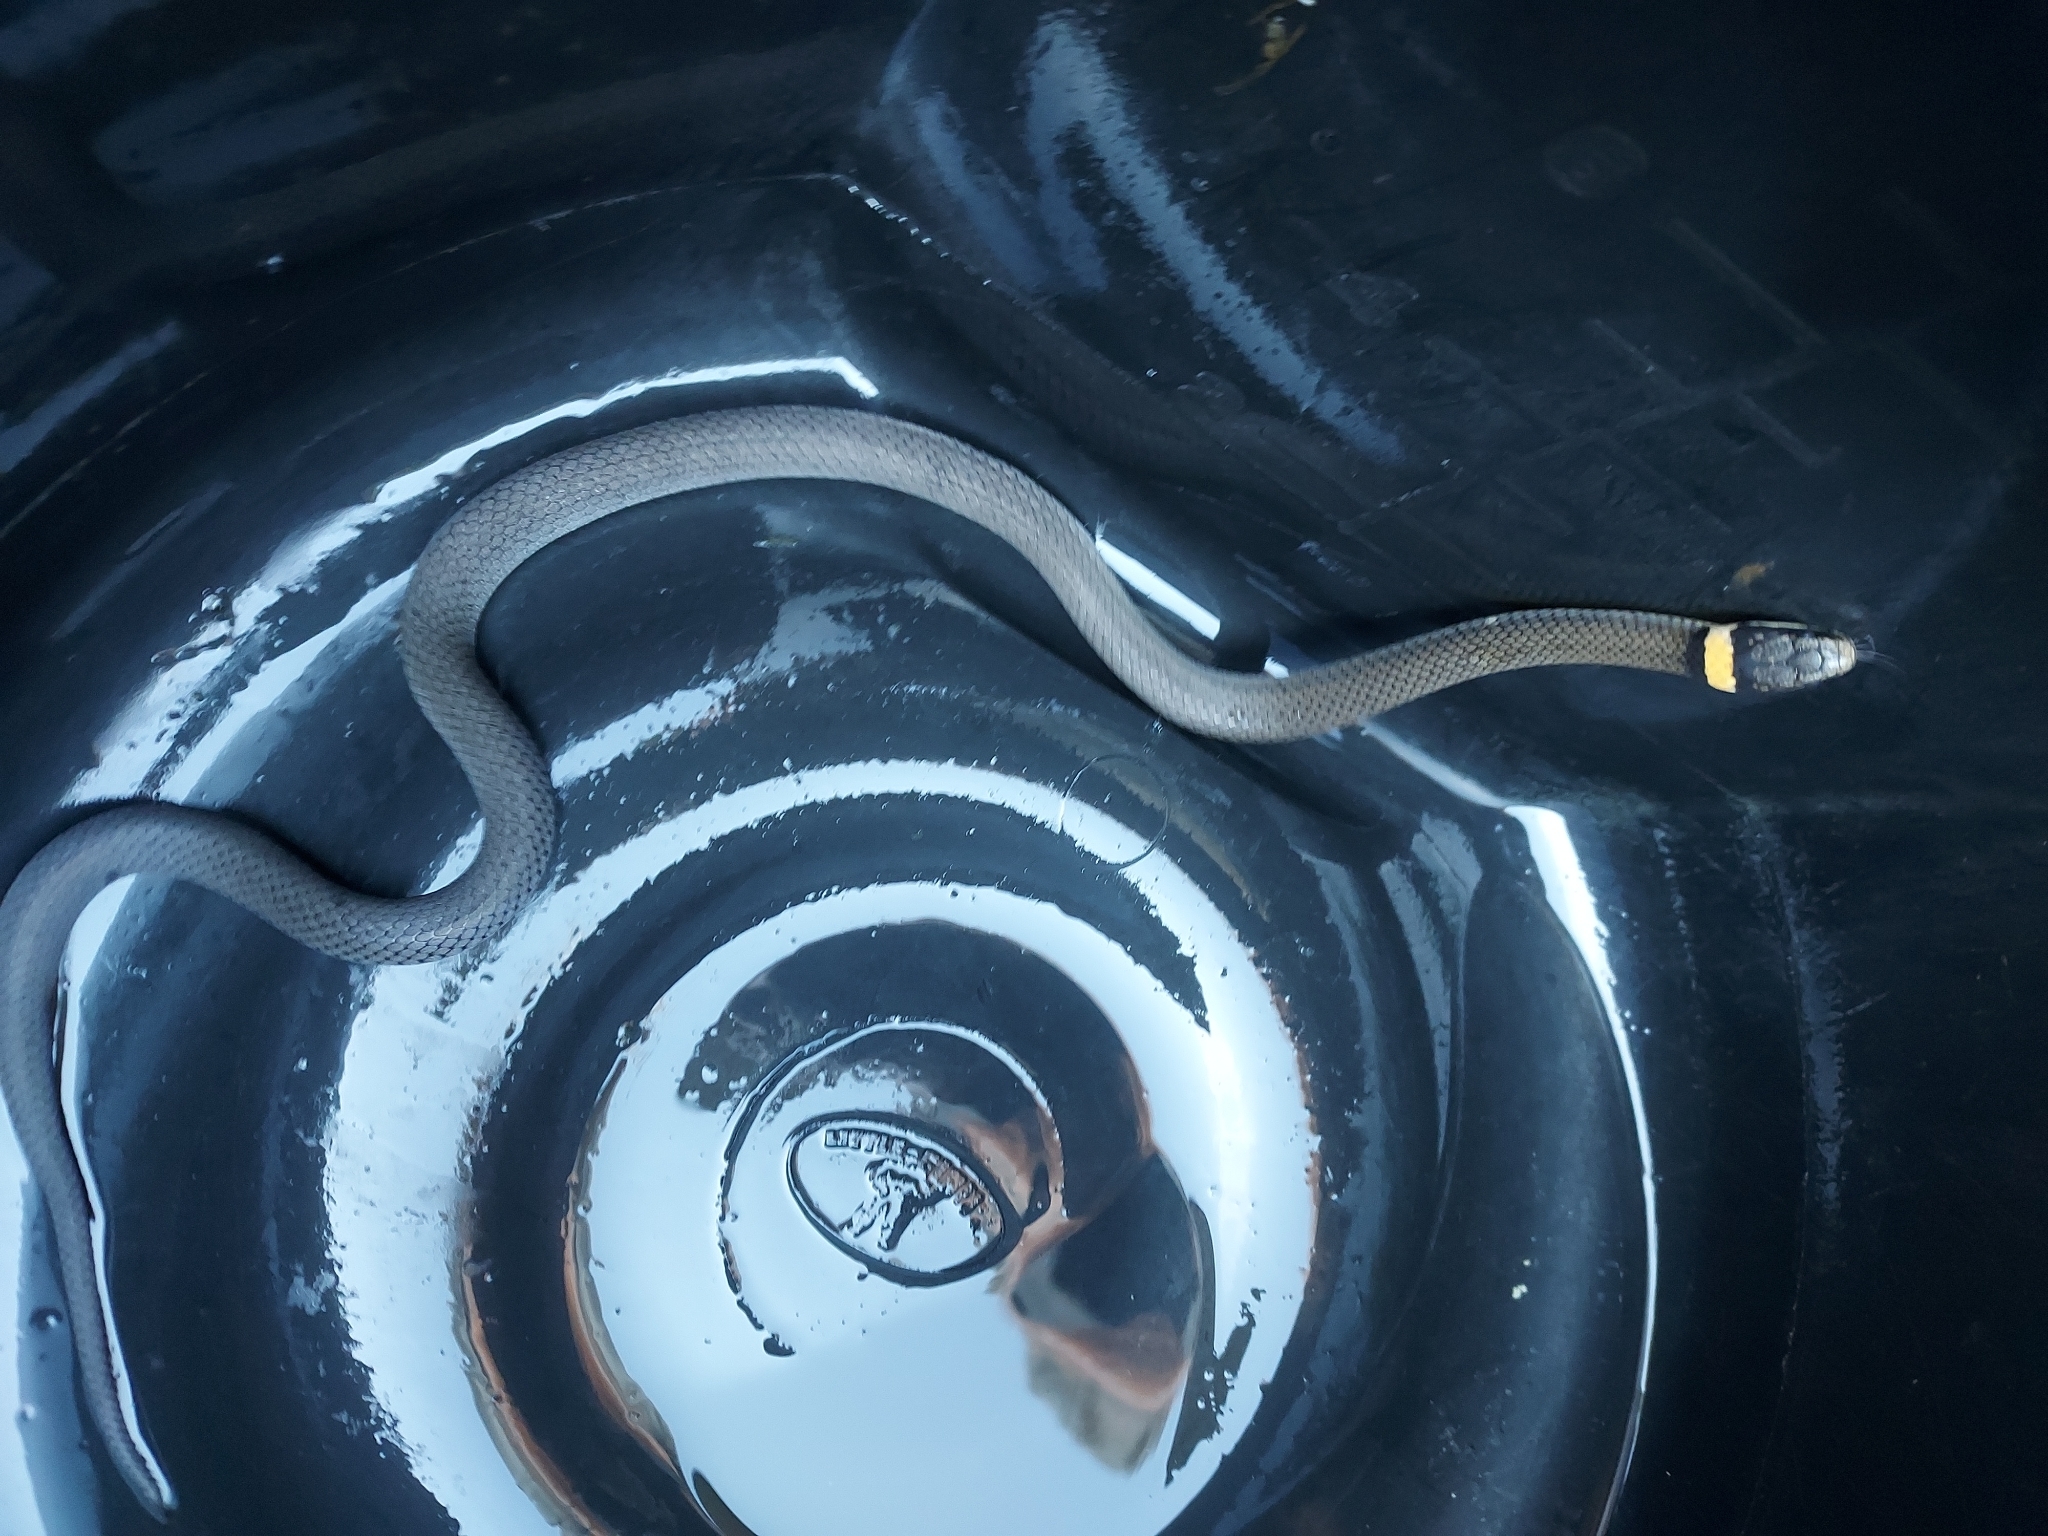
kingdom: Animalia
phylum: Chordata
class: Squamata
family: Colubridae
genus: Diadophis
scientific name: Diadophis punctatus
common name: Ringneck snake
